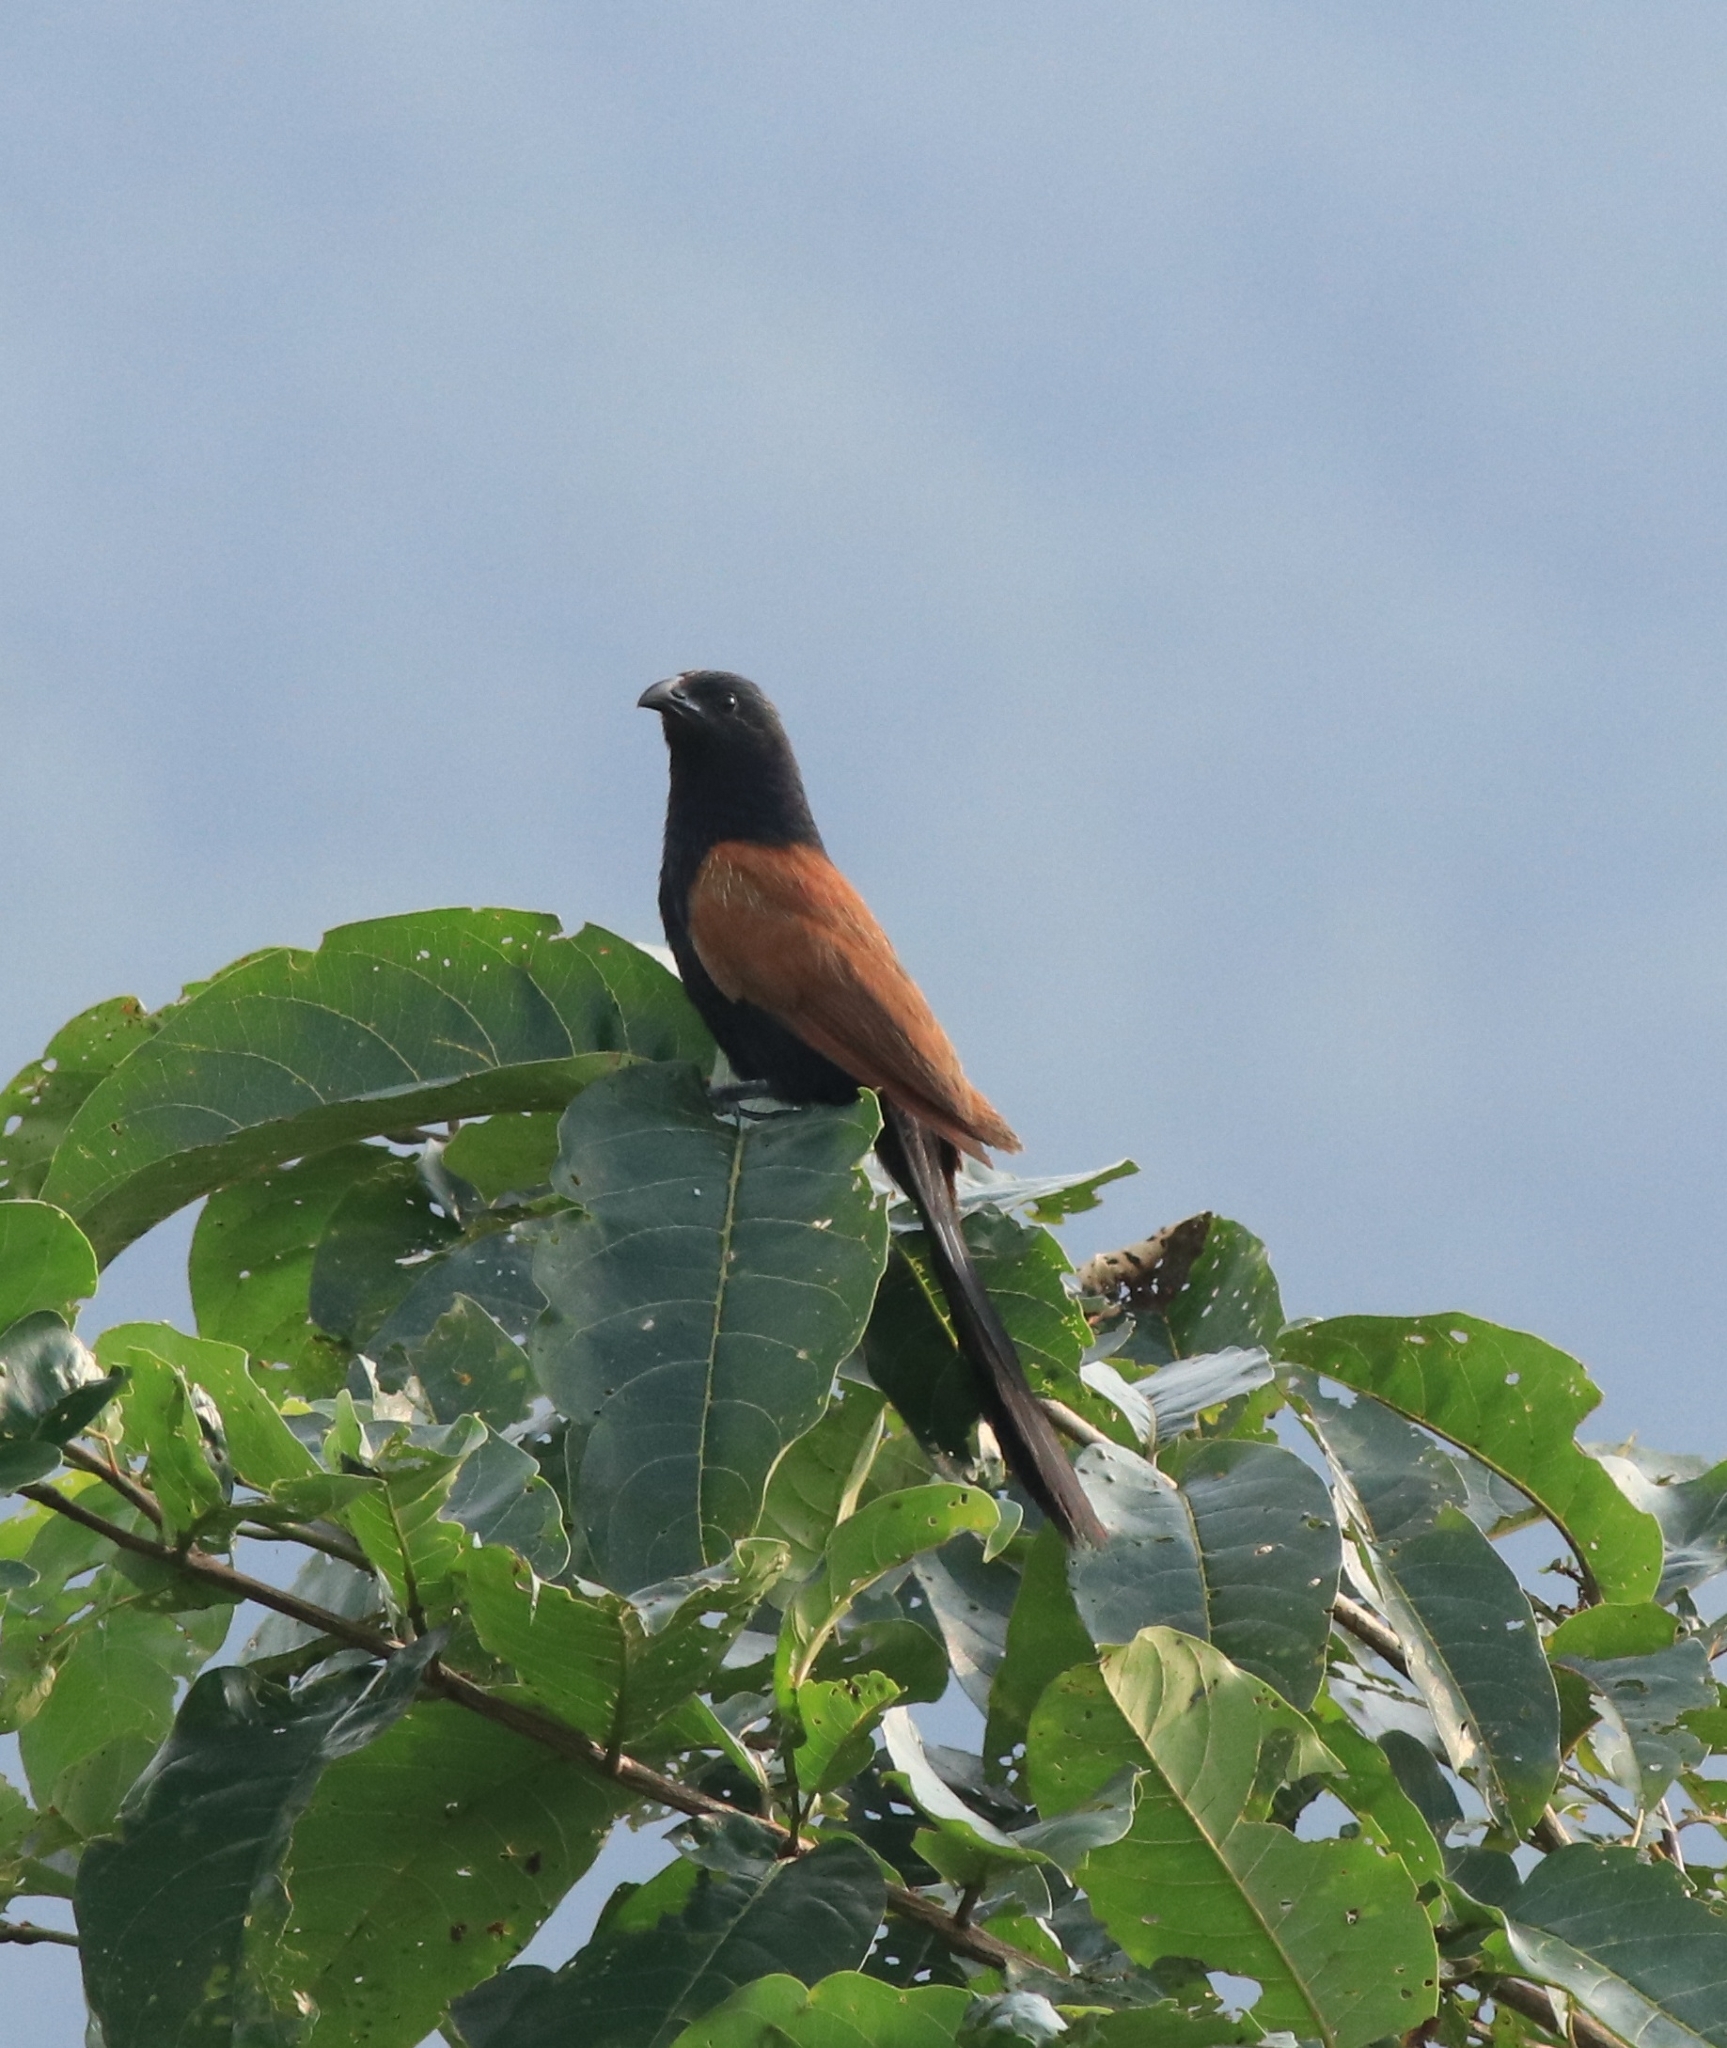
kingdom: Animalia
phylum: Chordata
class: Aves
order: Cuculiformes
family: Cuculidae
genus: Centropus
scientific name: Centropus bengalensis
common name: Lesser coucal
